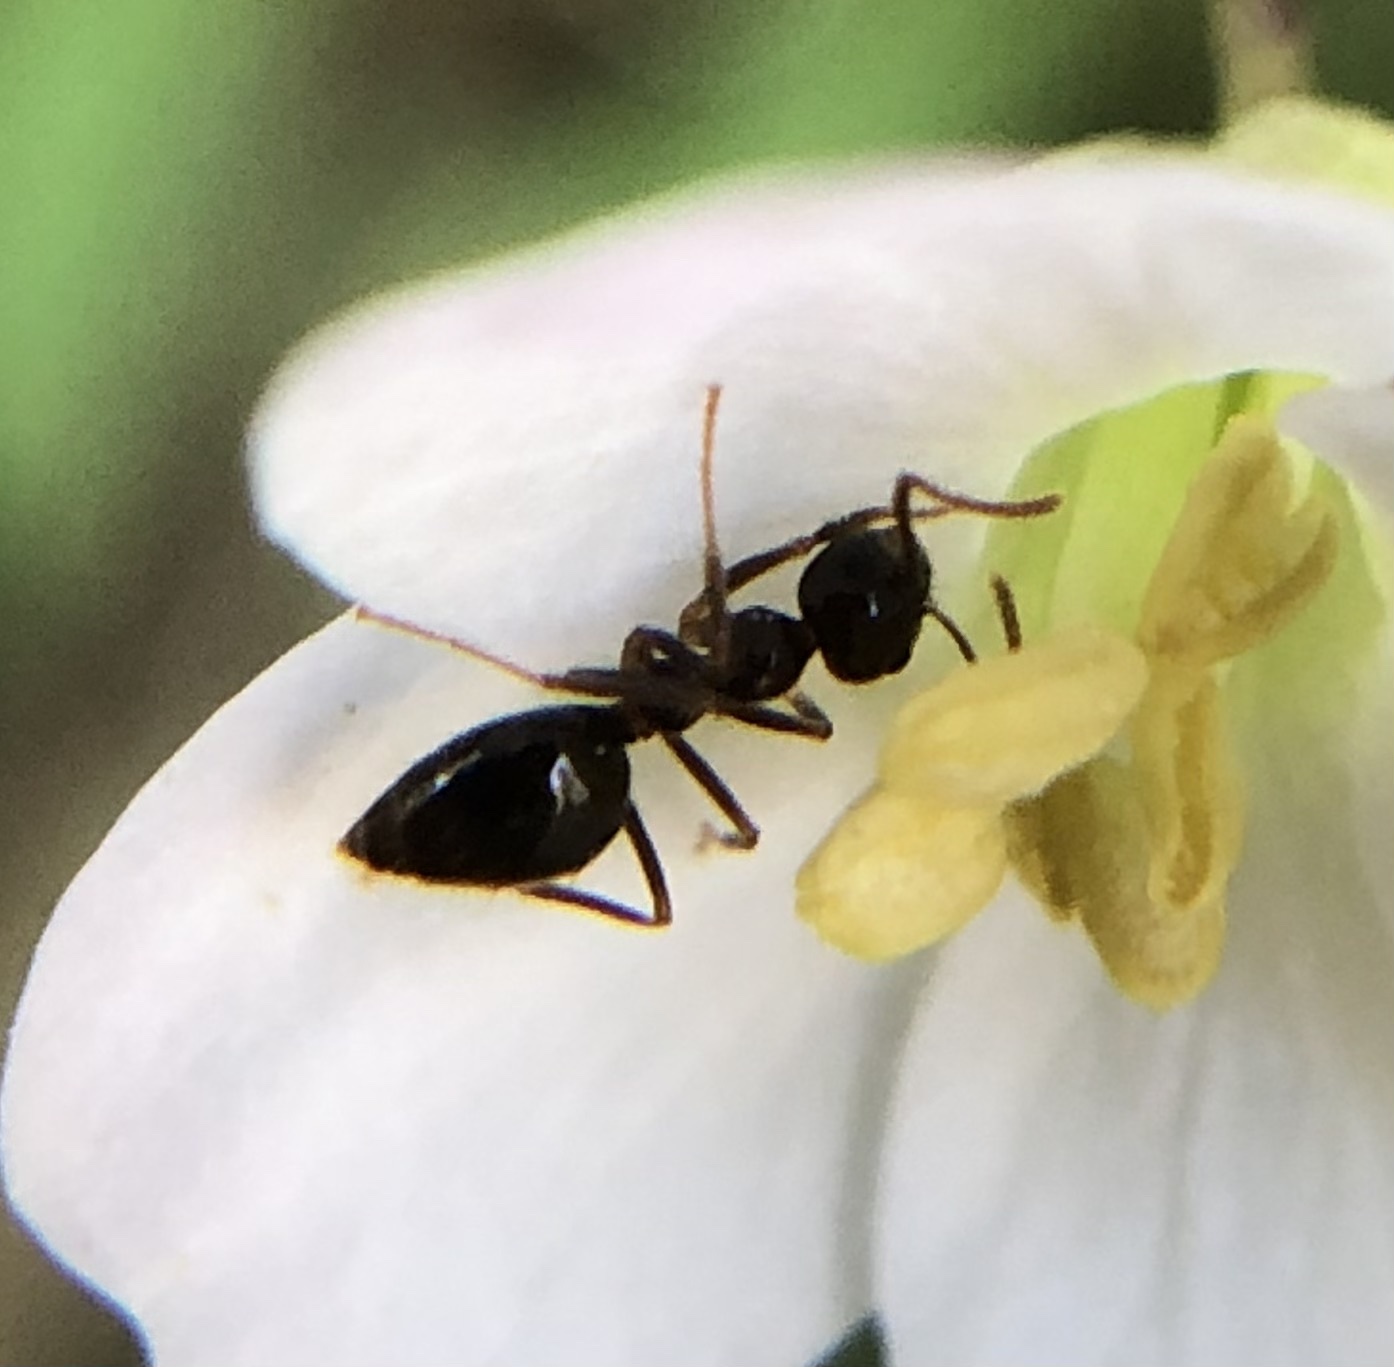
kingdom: Animalia
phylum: Arthropoda
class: Insecta
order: Hymenoptera
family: Formicidae
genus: Prenolepis
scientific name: Prenolepis imparis
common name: Small honey ant
